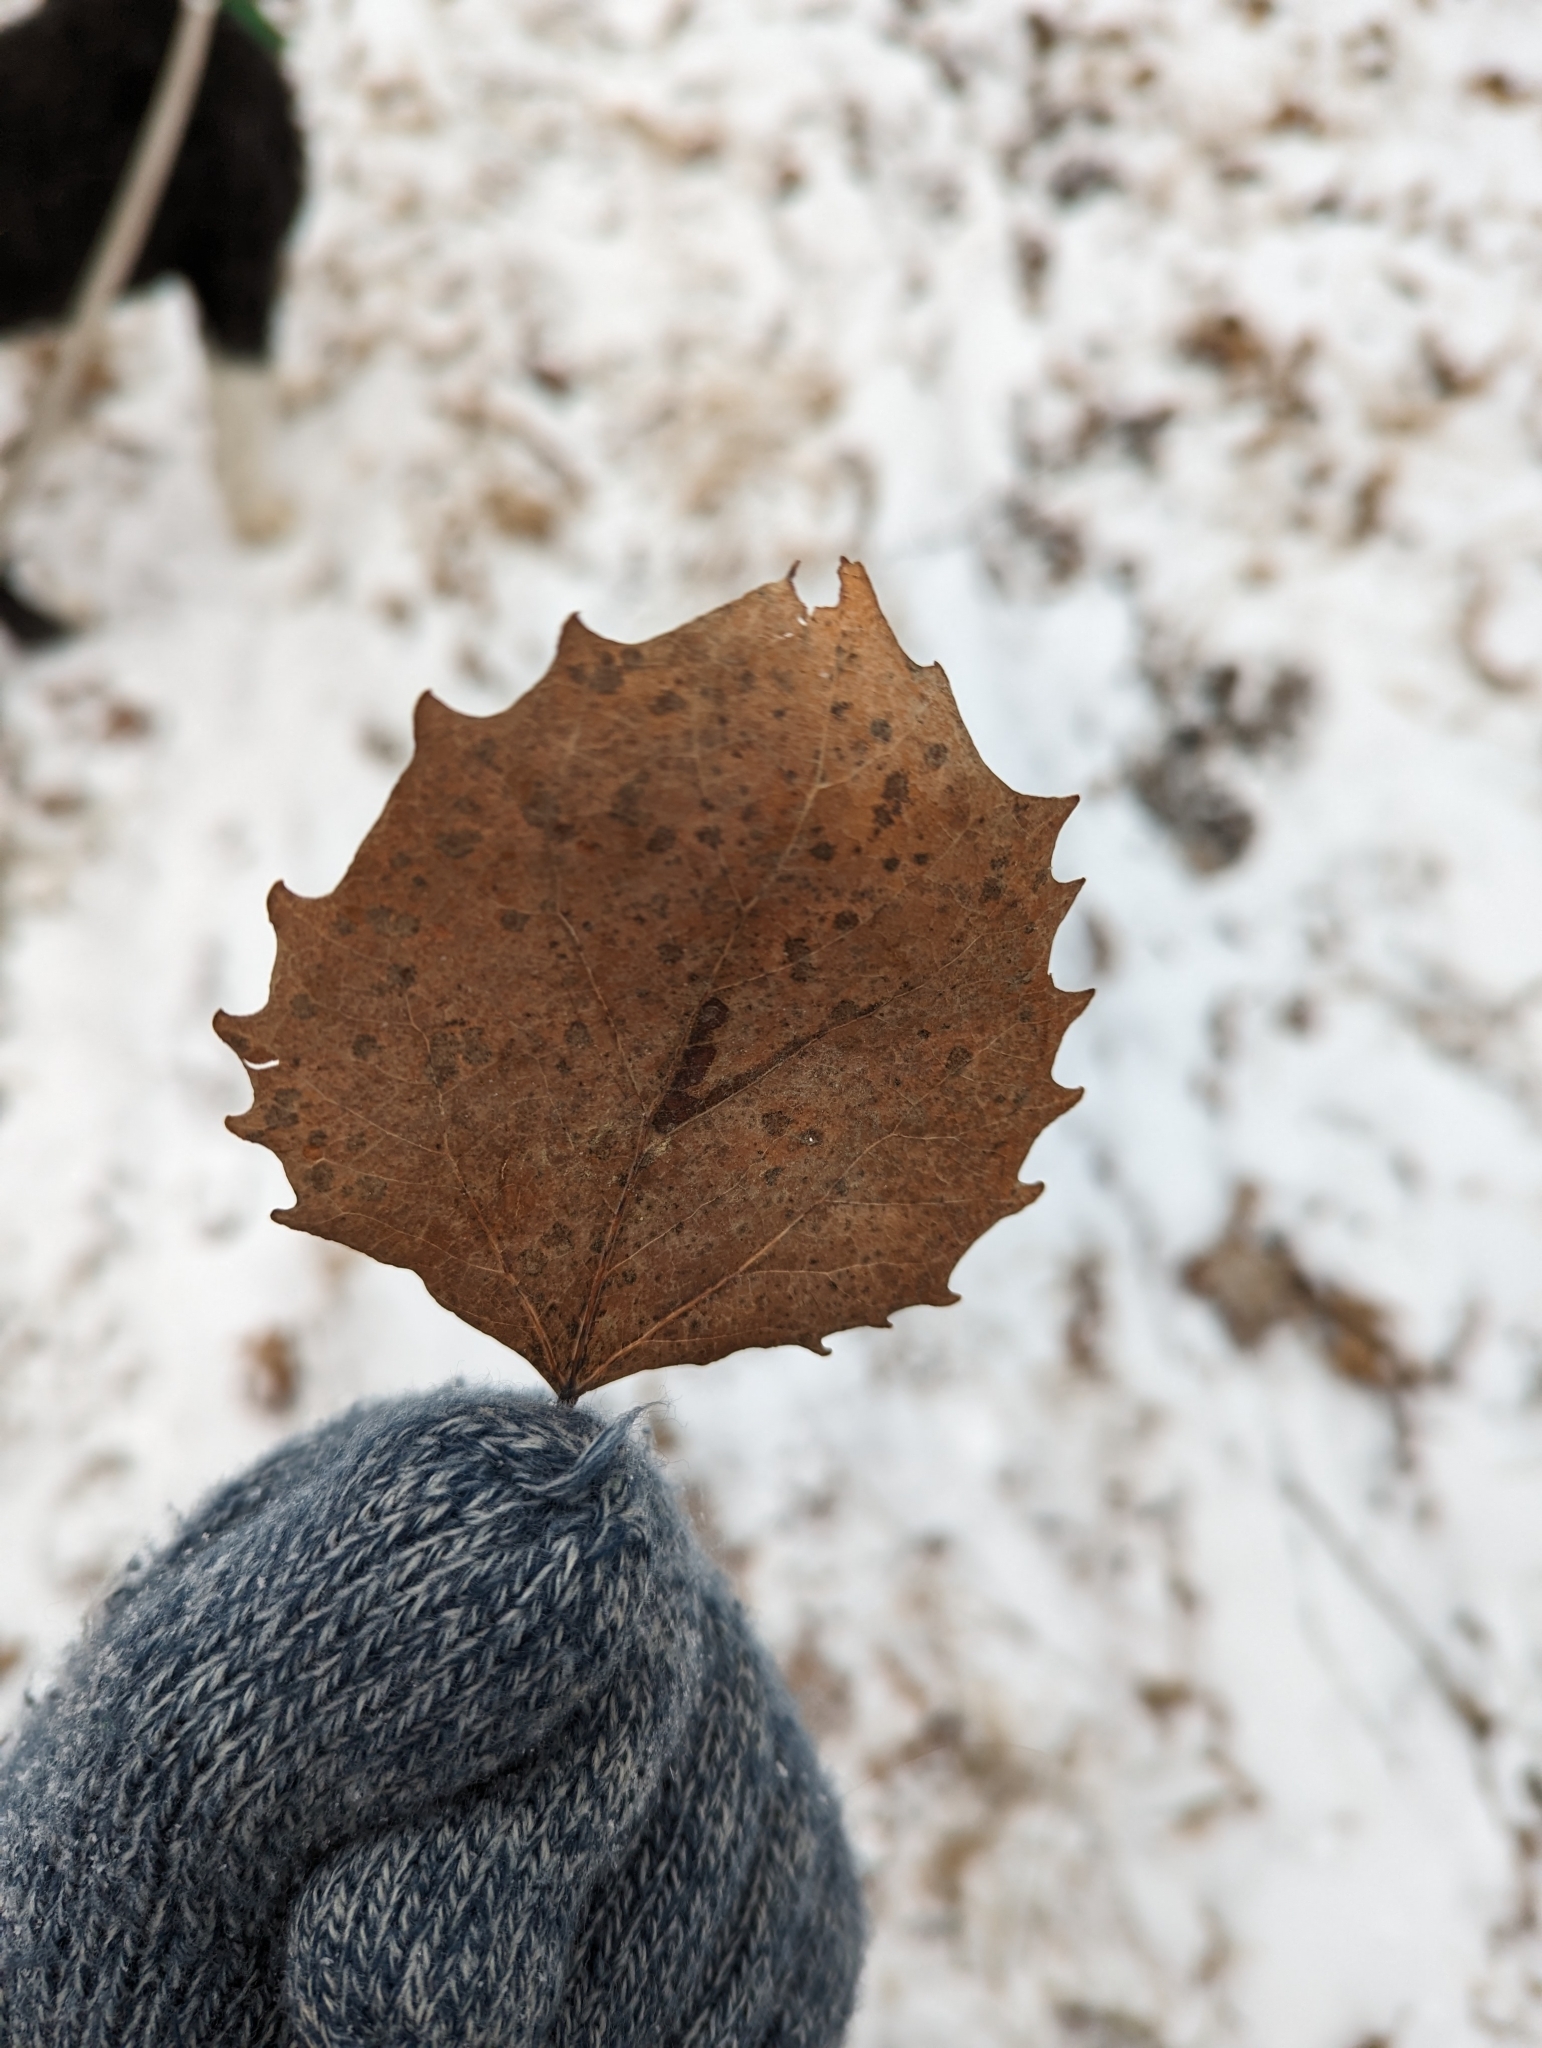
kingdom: Plantae
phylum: Tracheophyta
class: Magnoliopsida
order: Malpighiales
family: Salicaceae
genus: Populus
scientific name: Populus grandidentata
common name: Bigtooth aspen
